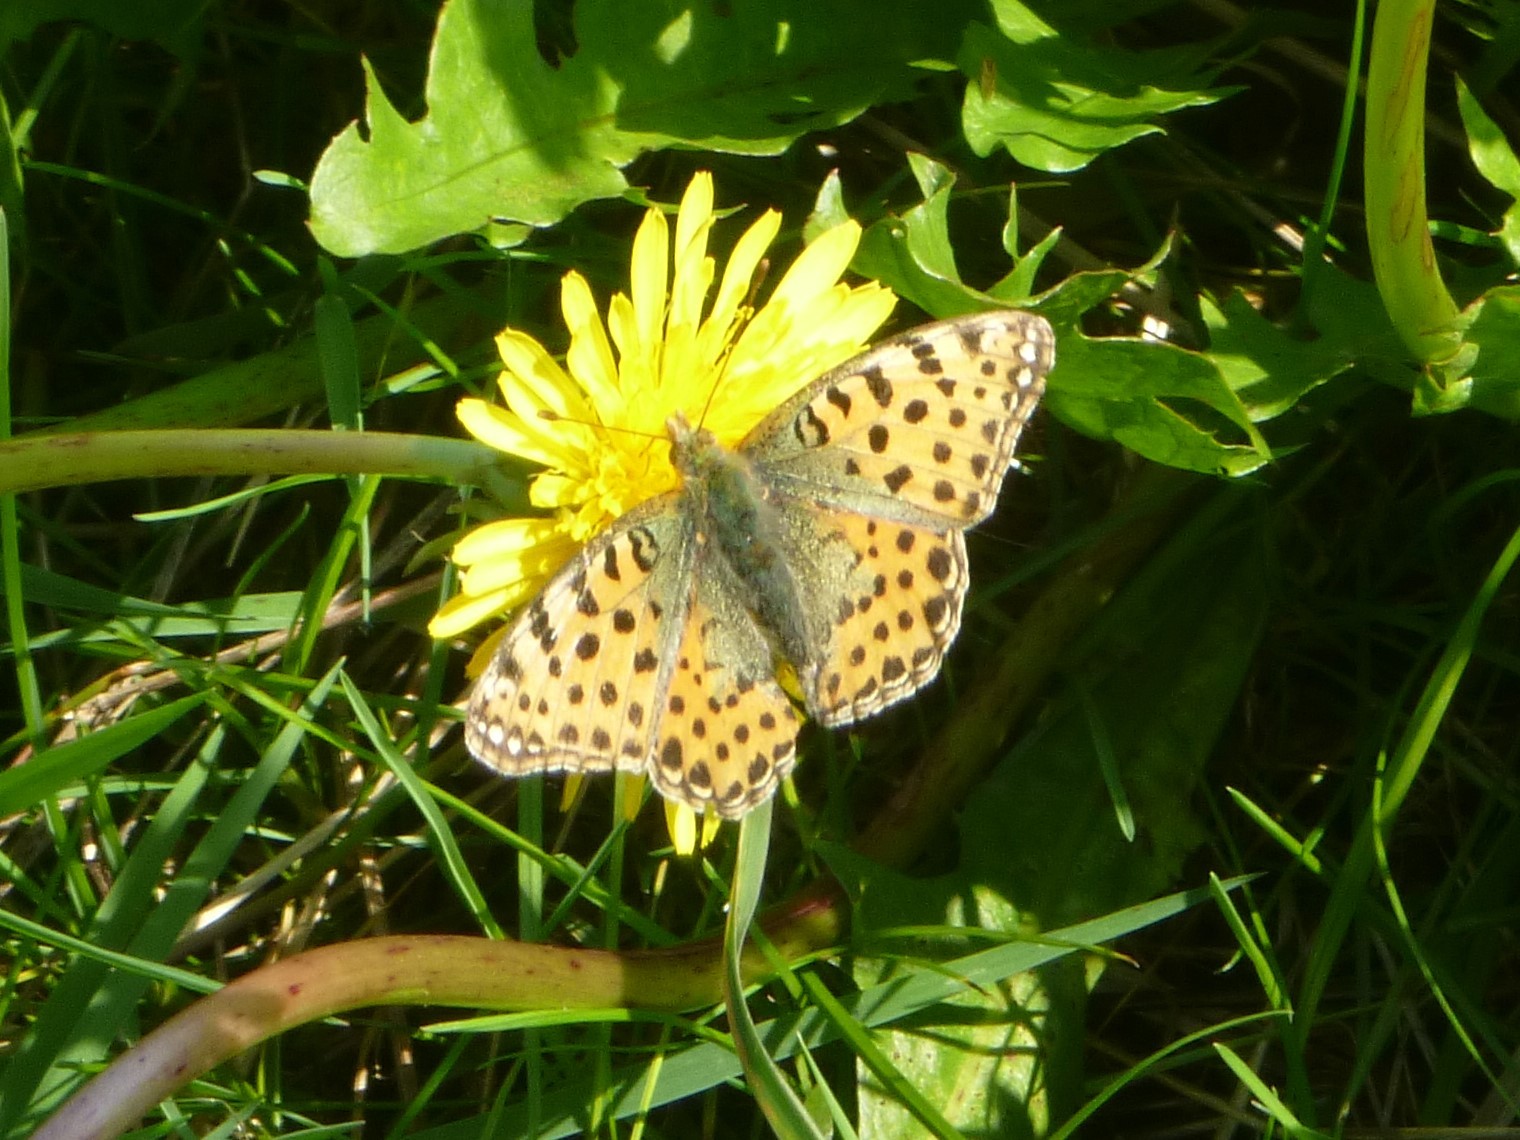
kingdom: Animalia
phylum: Arthropoda
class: Insecta
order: Lepidoptera
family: Nymphalidae
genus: Issoria
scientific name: Issoria lathonia
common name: Queen of spain fritillary
